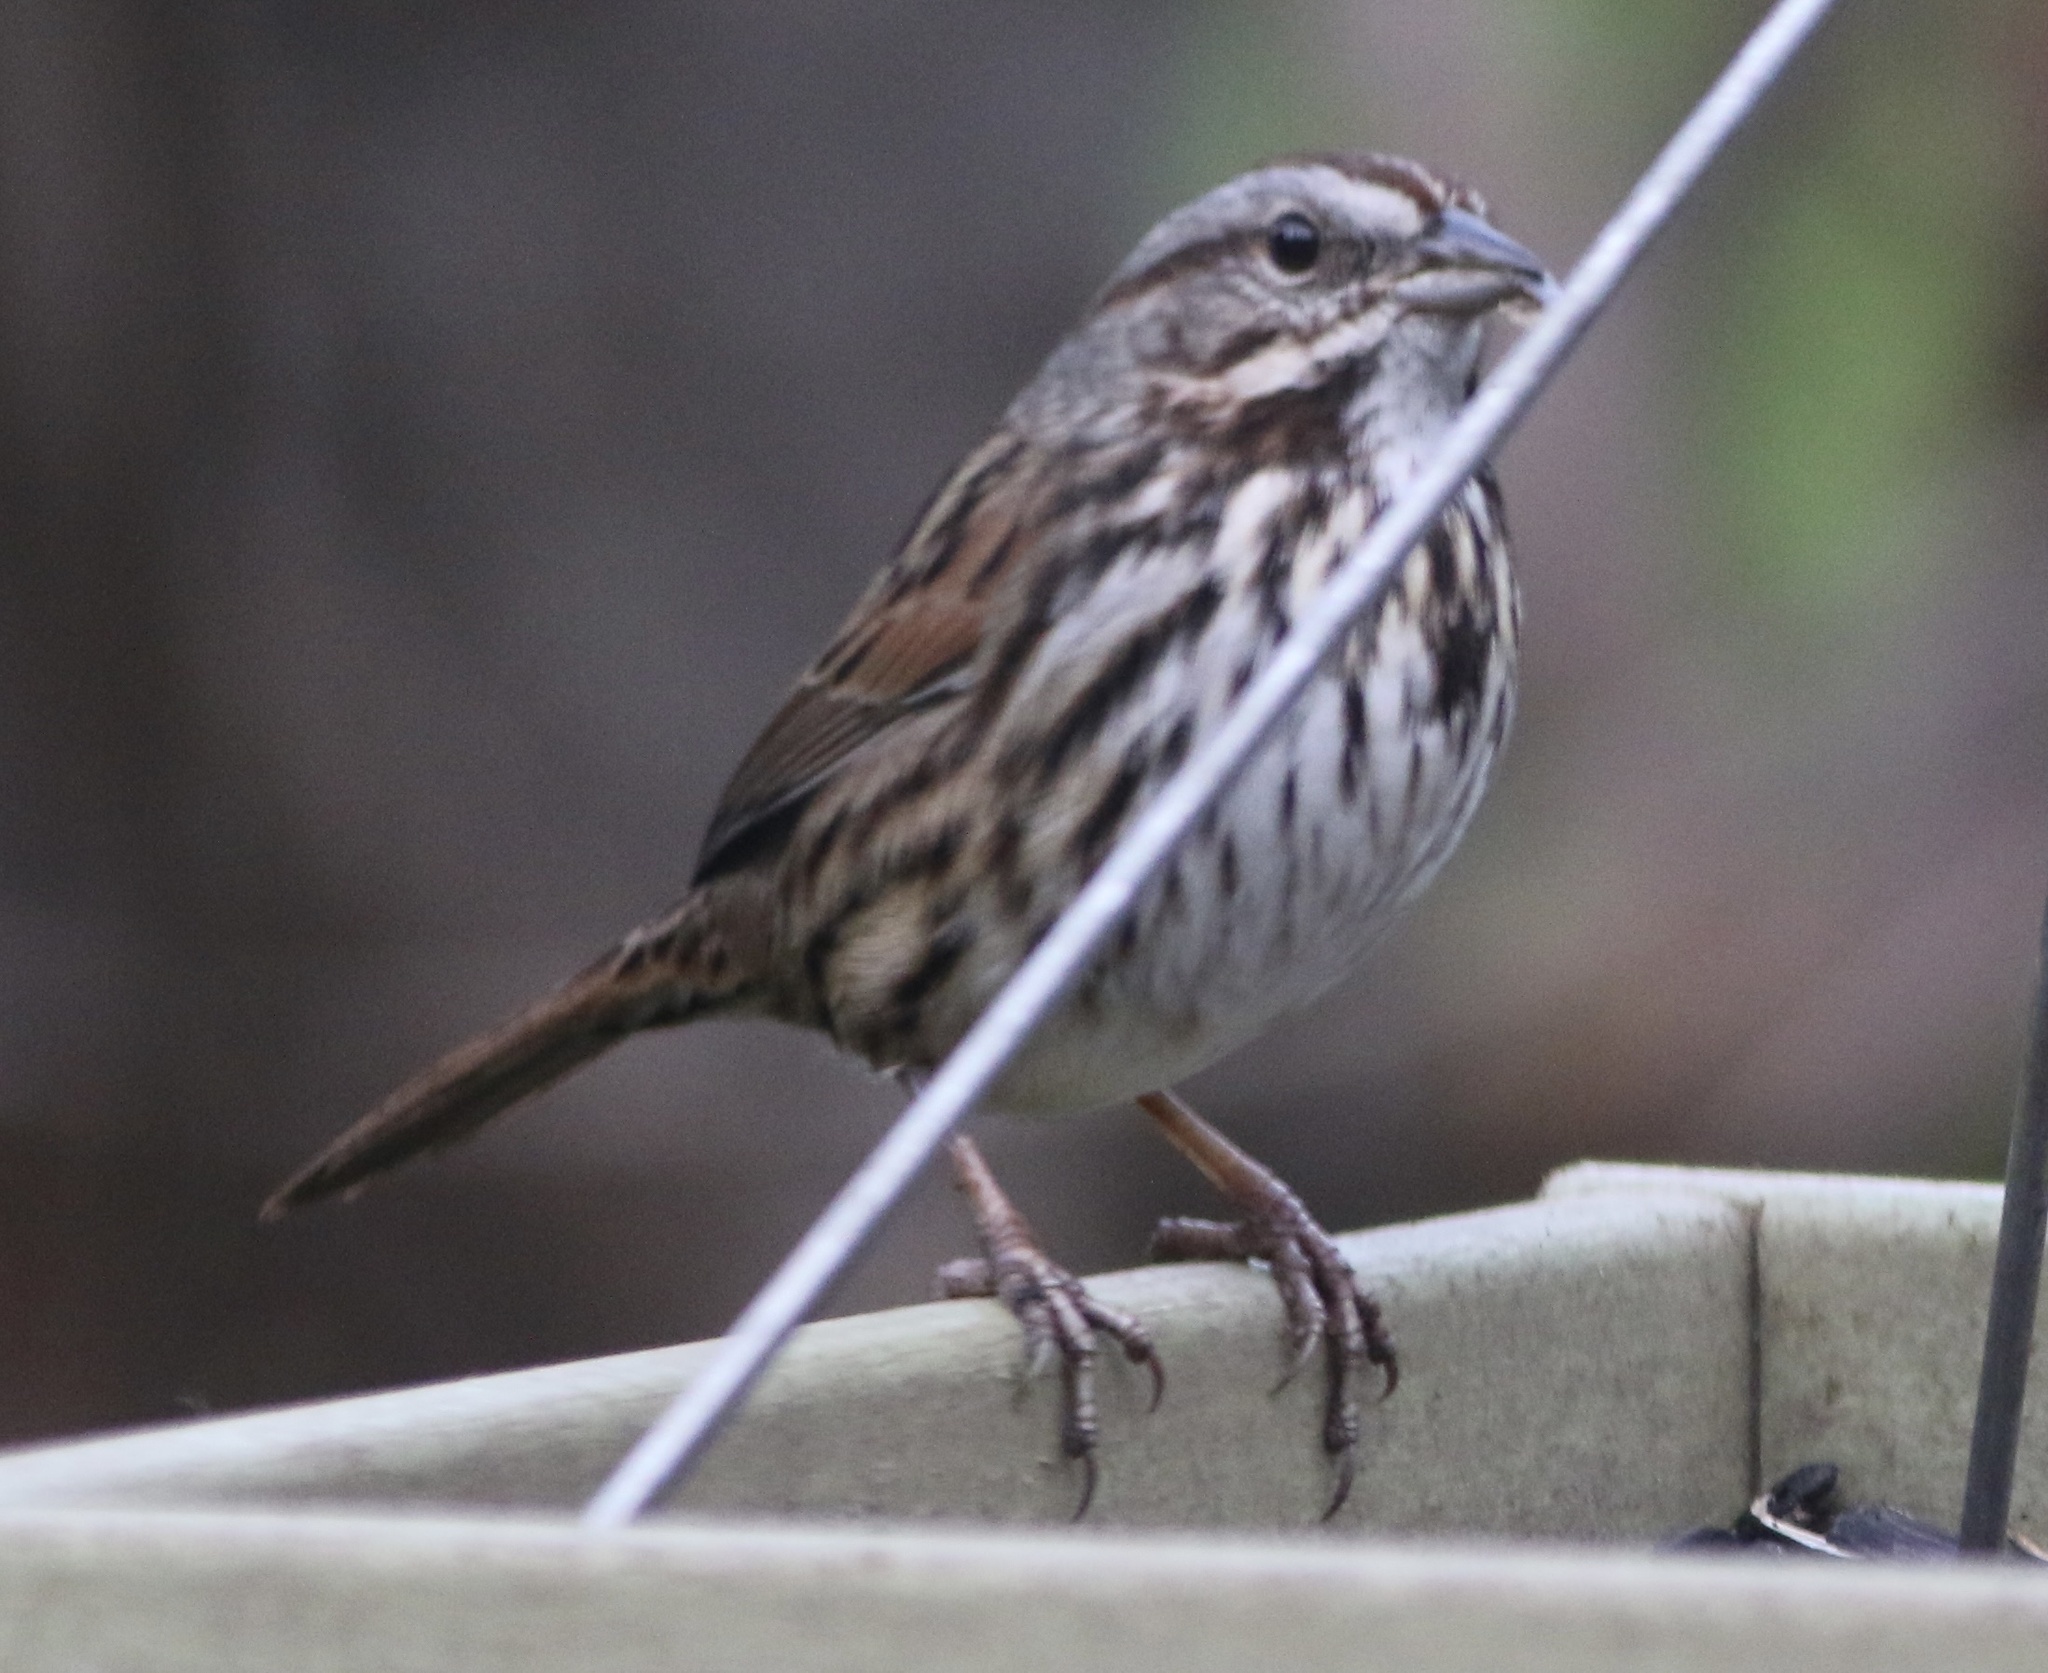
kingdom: Animalia
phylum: Chordata
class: Aves
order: Passeriformes
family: Passerellidae
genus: Melospiza
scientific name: Melospiza melodia
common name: Song sparrow
